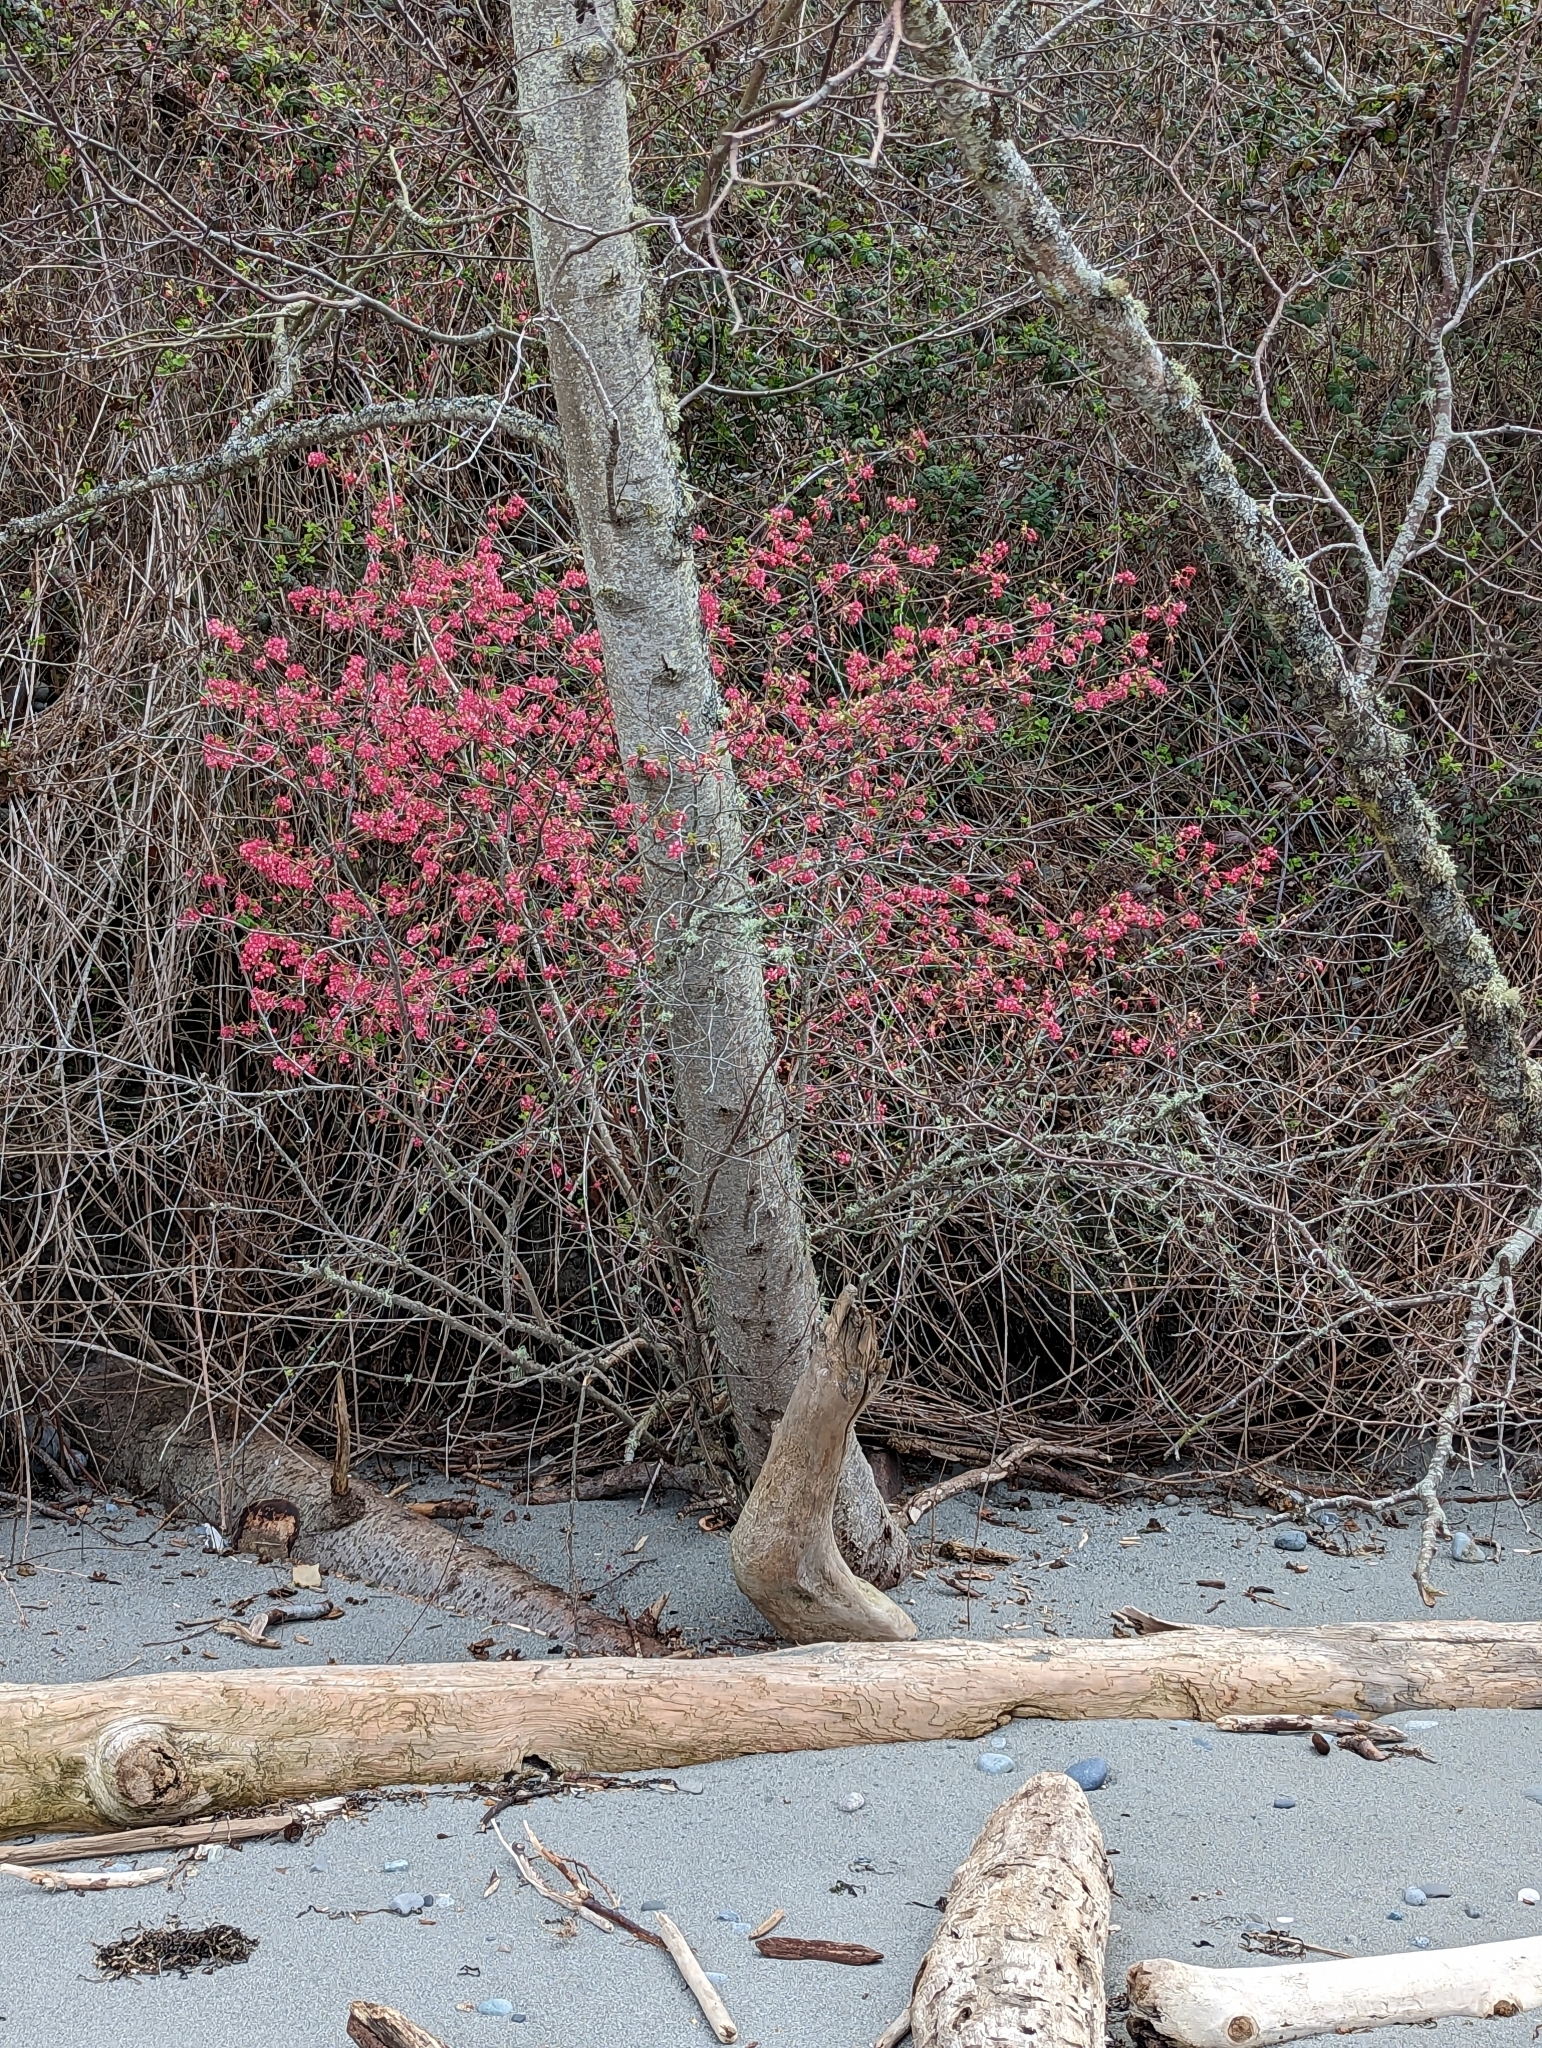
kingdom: Plantae
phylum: Tracheophyta
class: Magnoliopsida
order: Saxifragales
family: Grossulariaceae
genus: Ribes
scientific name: Ribes sanguineum
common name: Flowering currant
